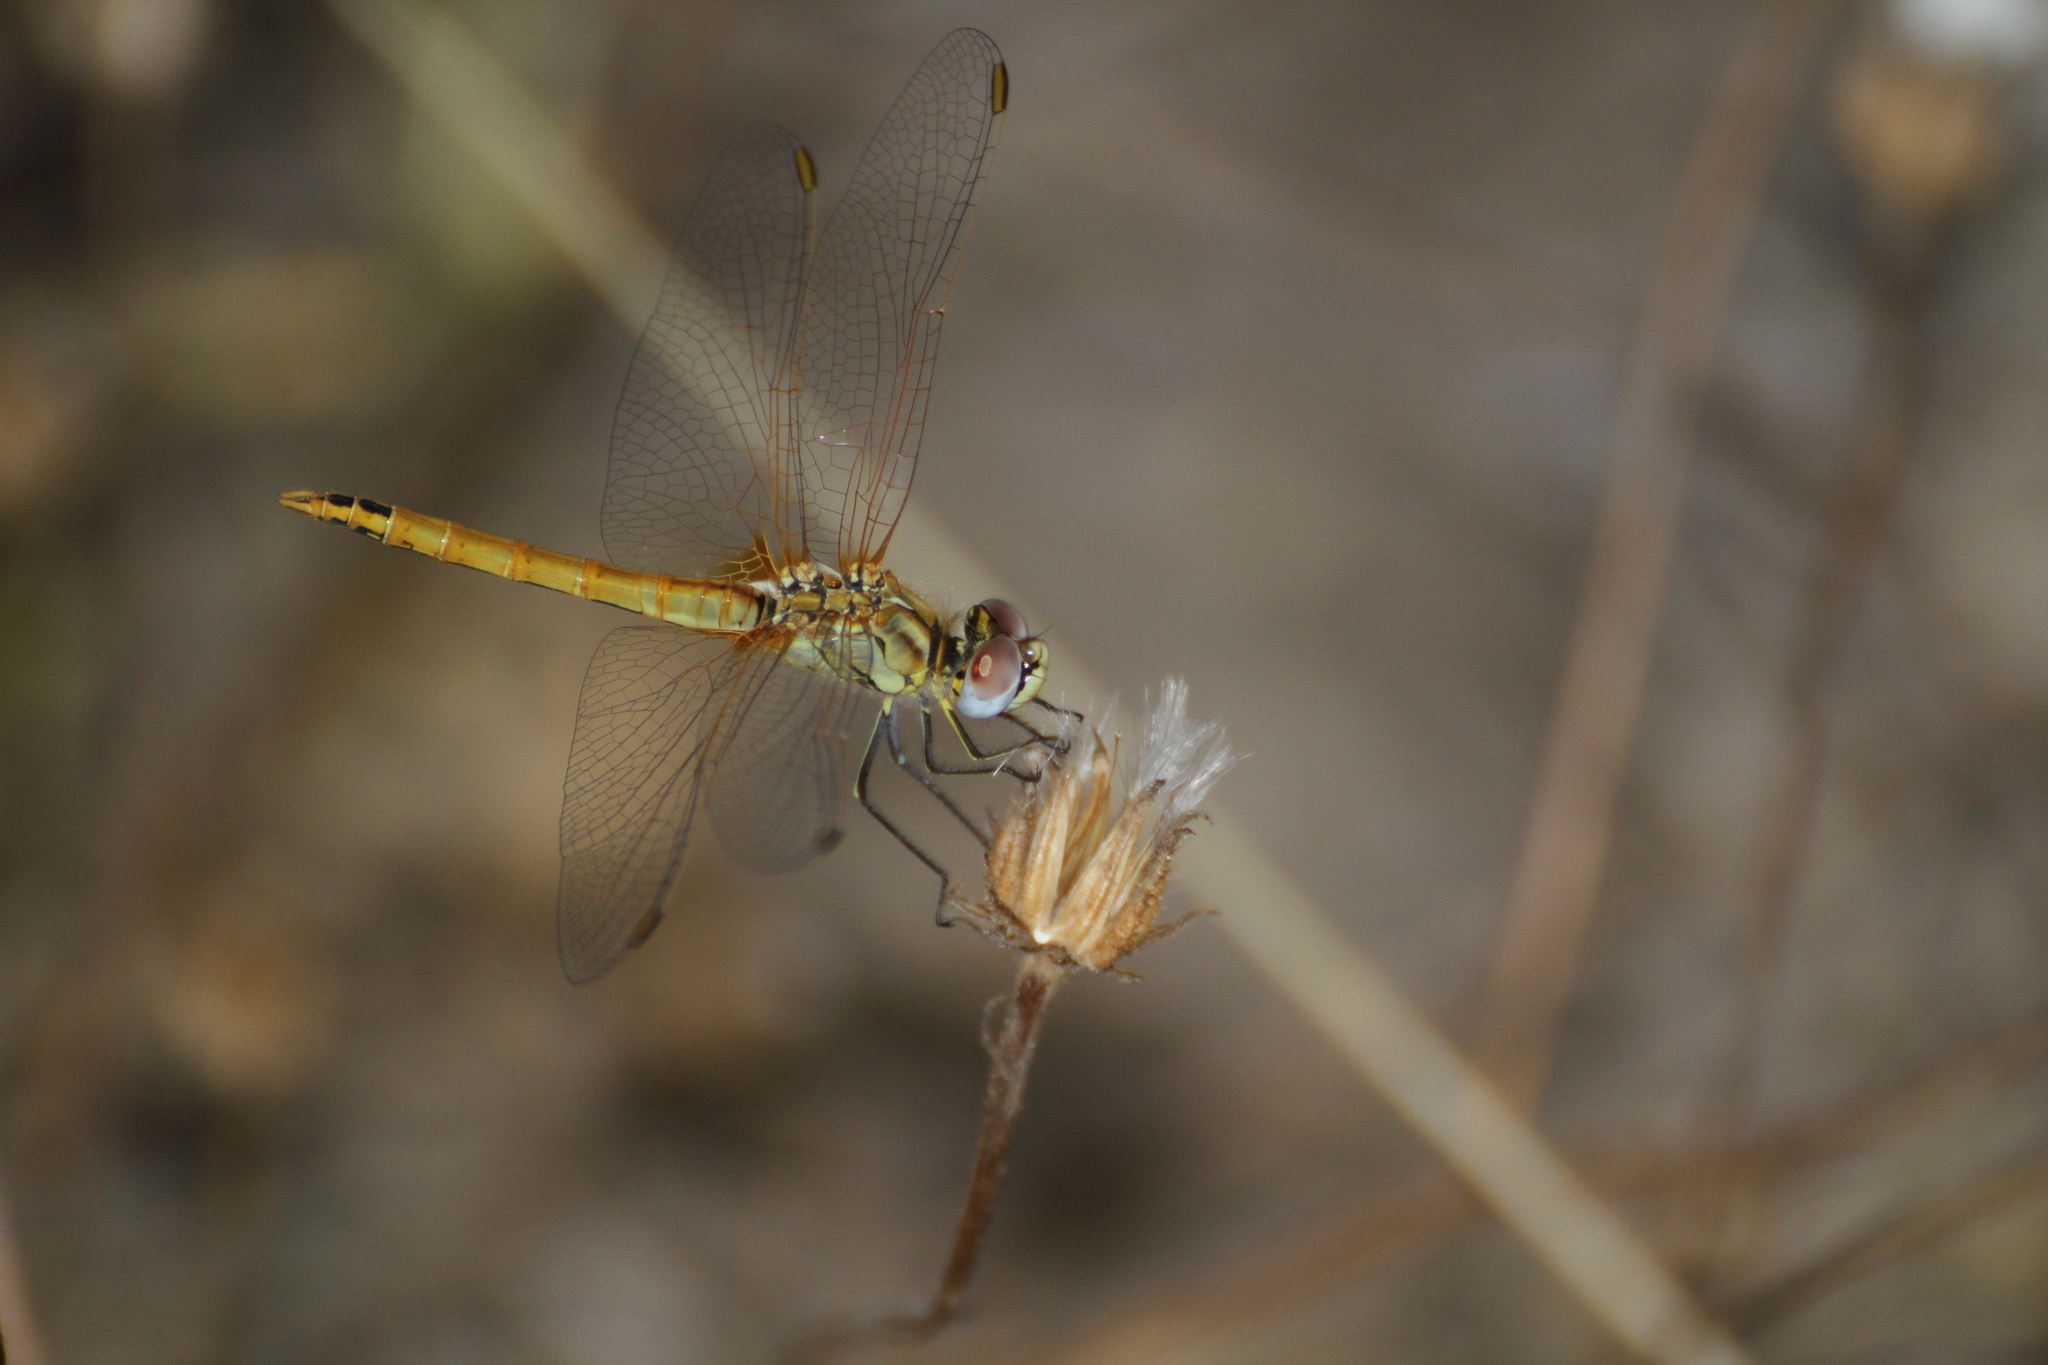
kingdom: Animalia
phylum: Arthropoda
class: Insecta
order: Odonata
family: Libellulidae
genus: Sympetrum
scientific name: Sympetrum fonscolombii
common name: Red-veined darter
